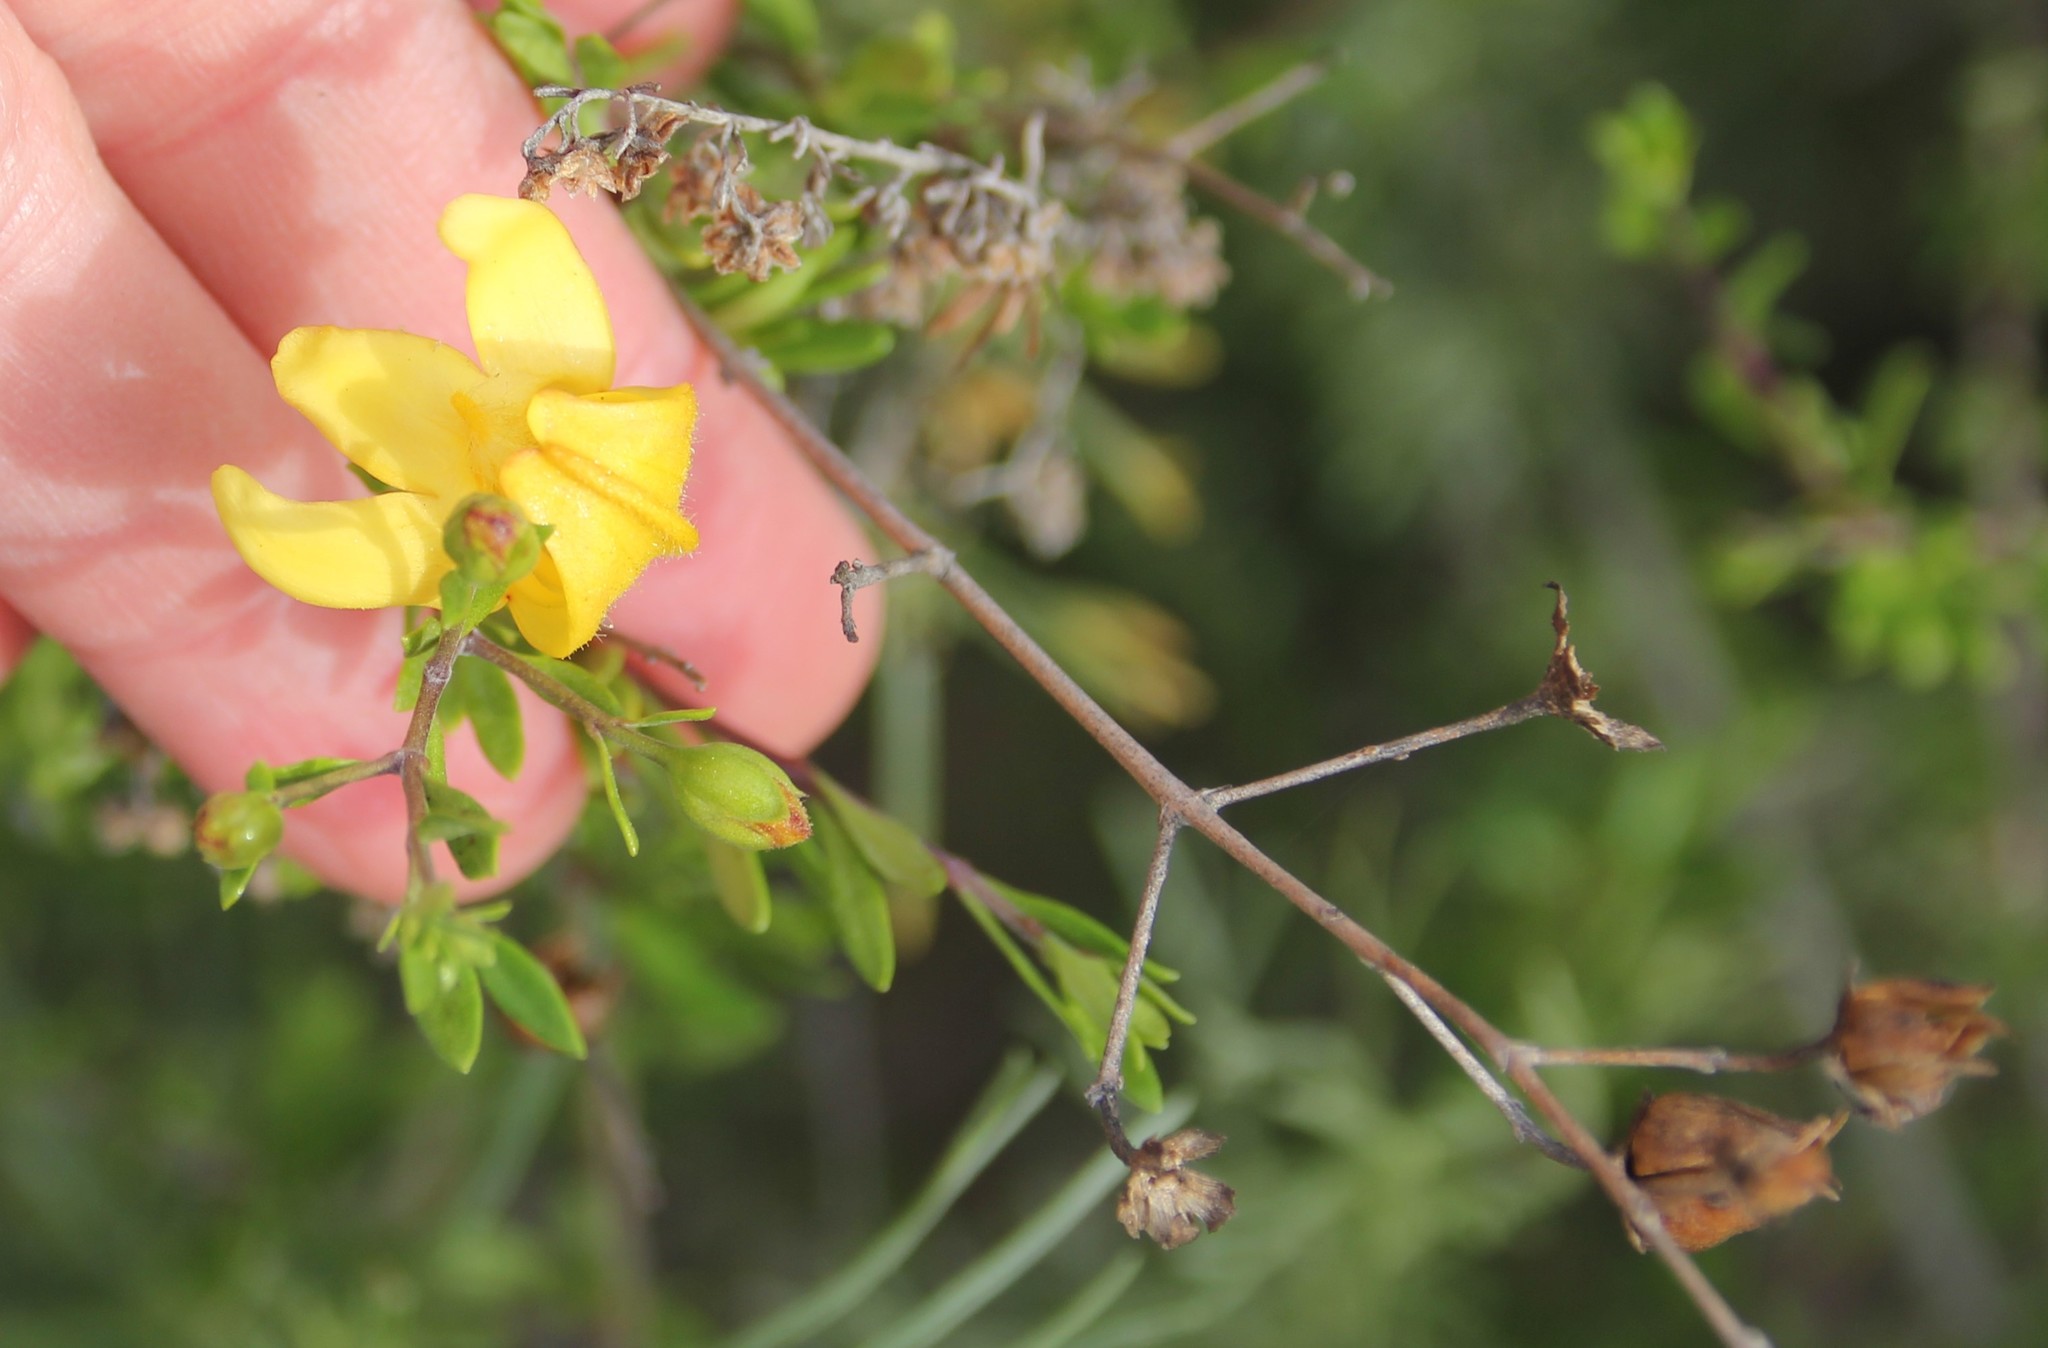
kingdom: Plantae
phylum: Tracheophyta
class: Magnoliopsida
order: Lamiales
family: Plantaginaceae
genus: Keckiella
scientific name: Keckiella antirrhinoides
